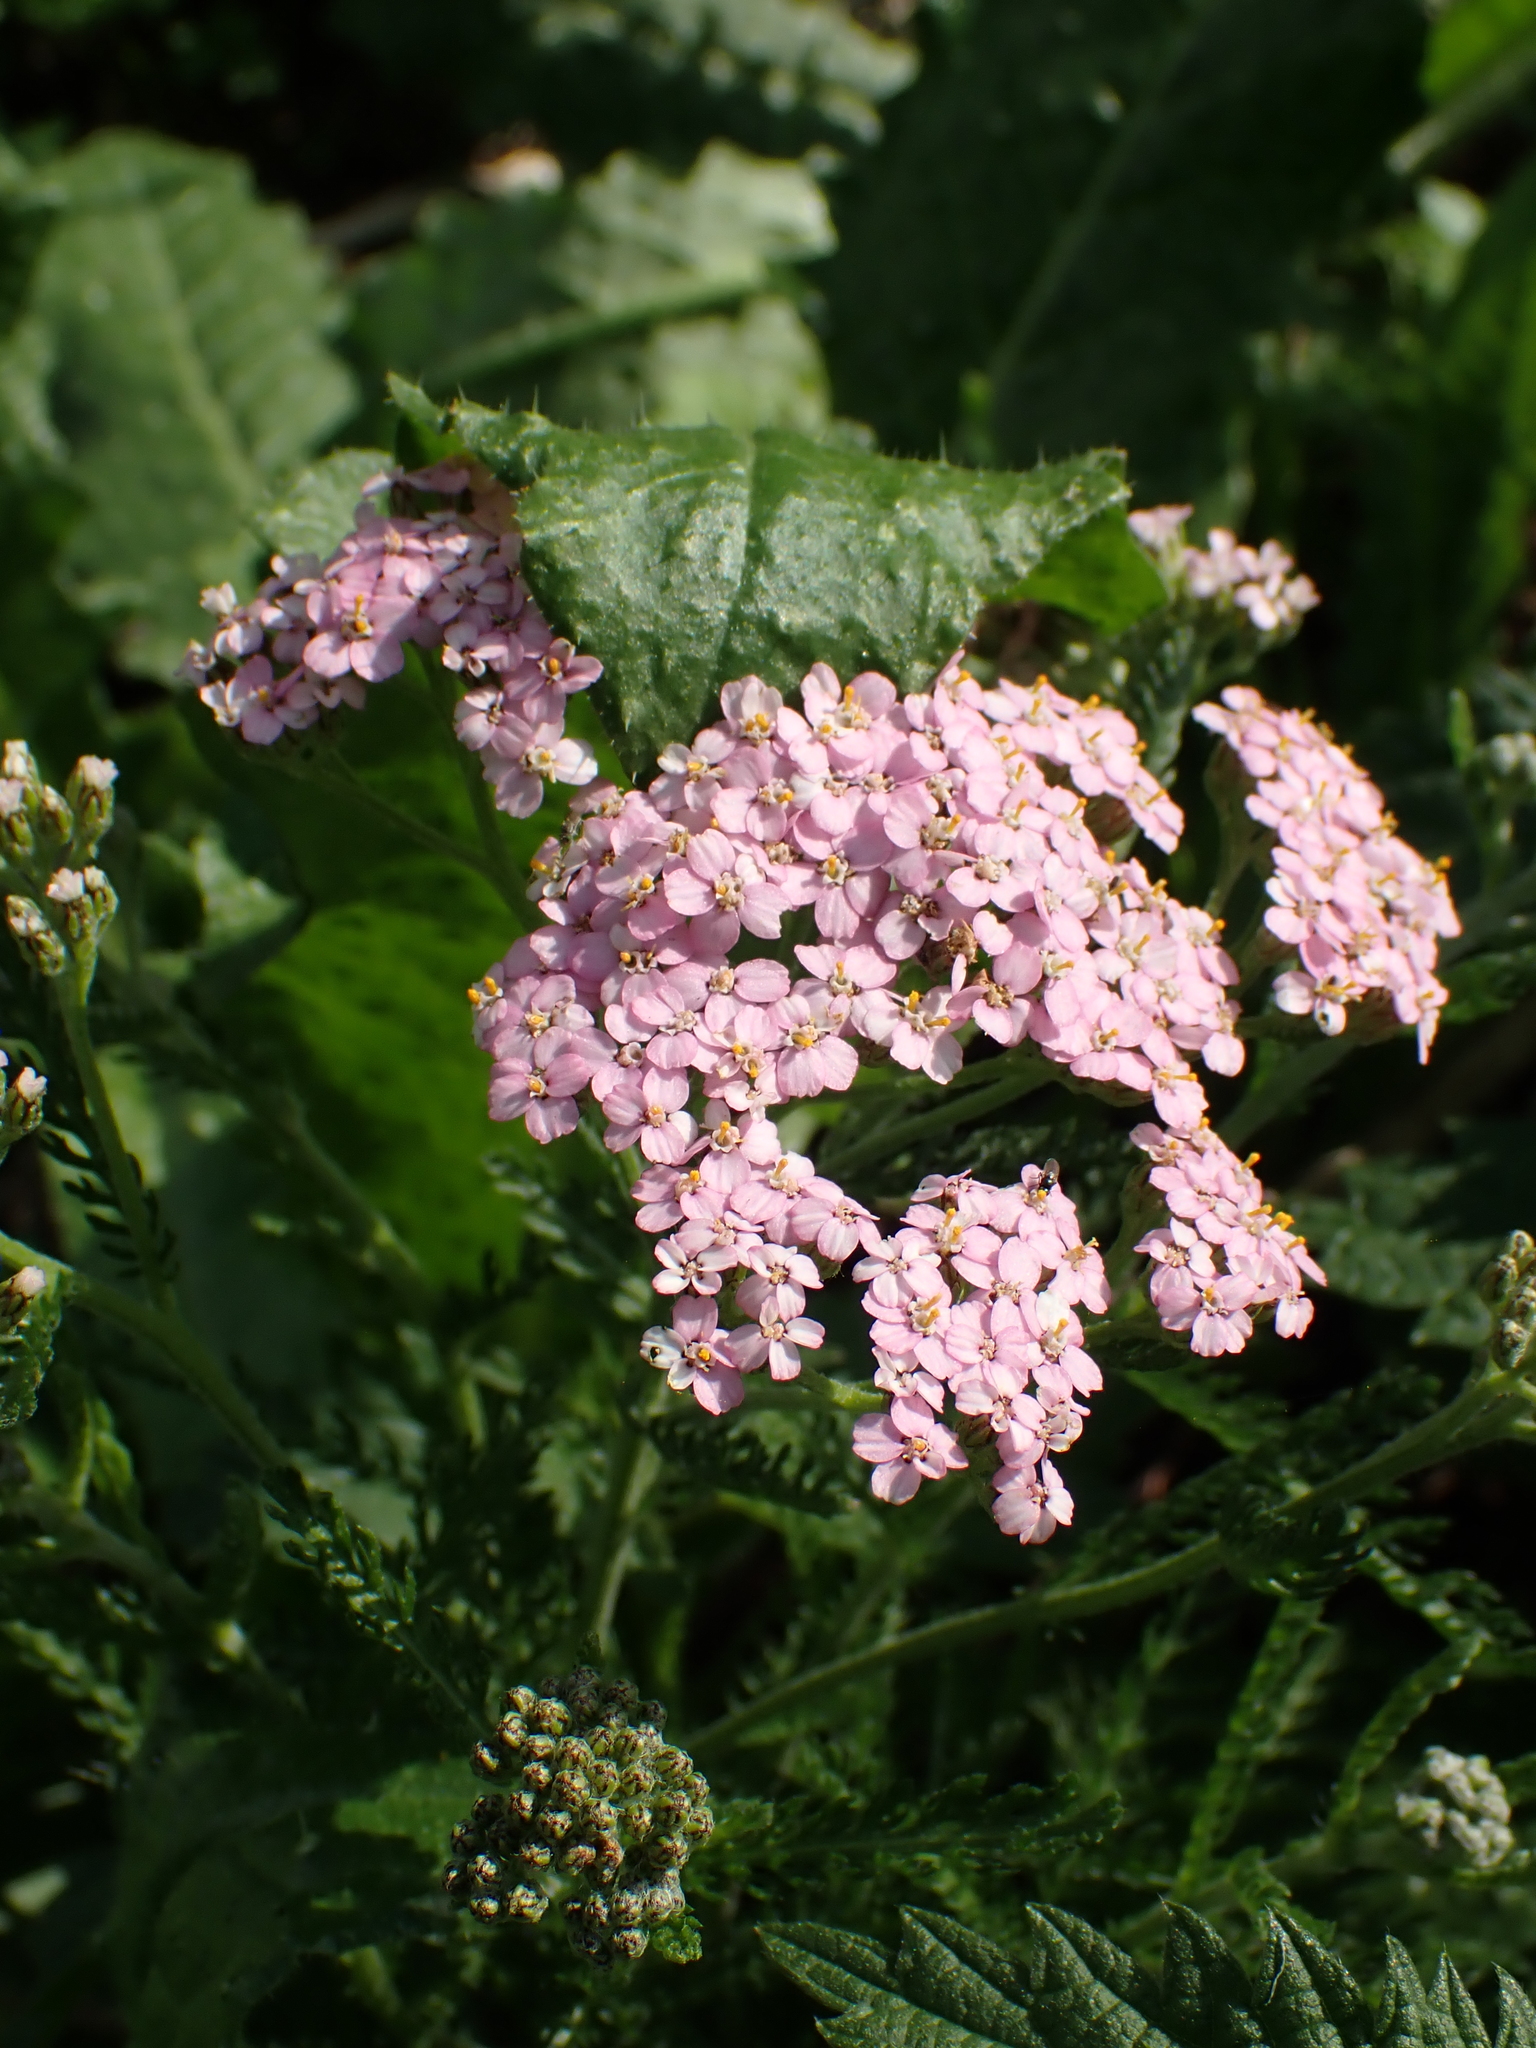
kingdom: Plantae
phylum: Tracheophyta
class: Magnoliopsida
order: Asterales
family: Asteraceae
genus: Achillea
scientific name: Achillea millefolium
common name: Yarrow
